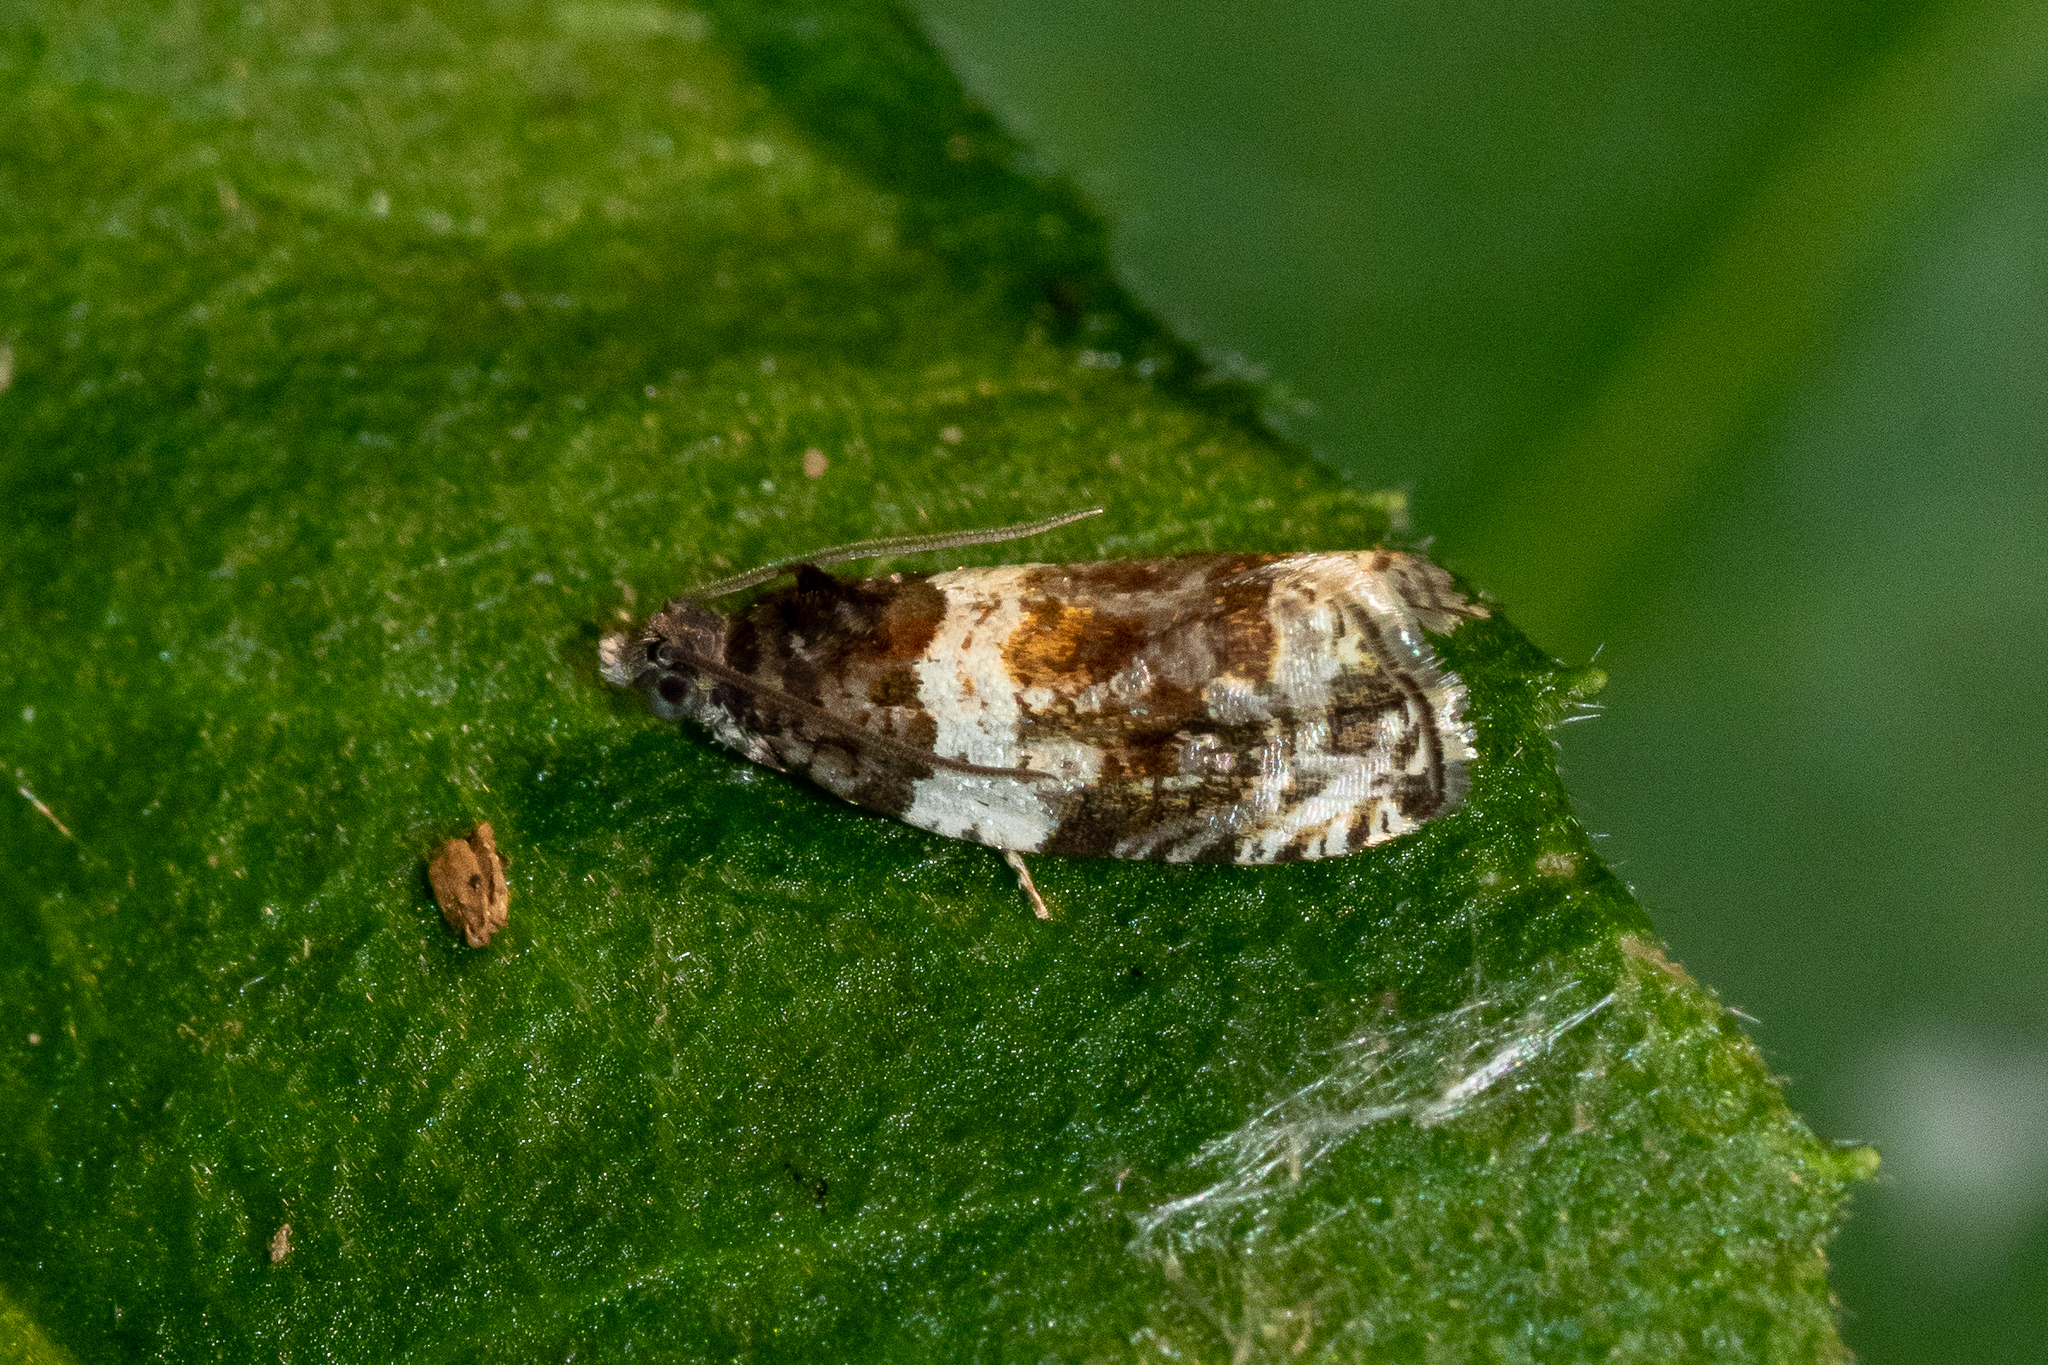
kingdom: Animalia
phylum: Arthropoda
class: Insecta
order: Lepidoptera
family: Tortricidae
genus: Olethreutes
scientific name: Olethreutes fasciatana
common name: Banded olethreutes moth
